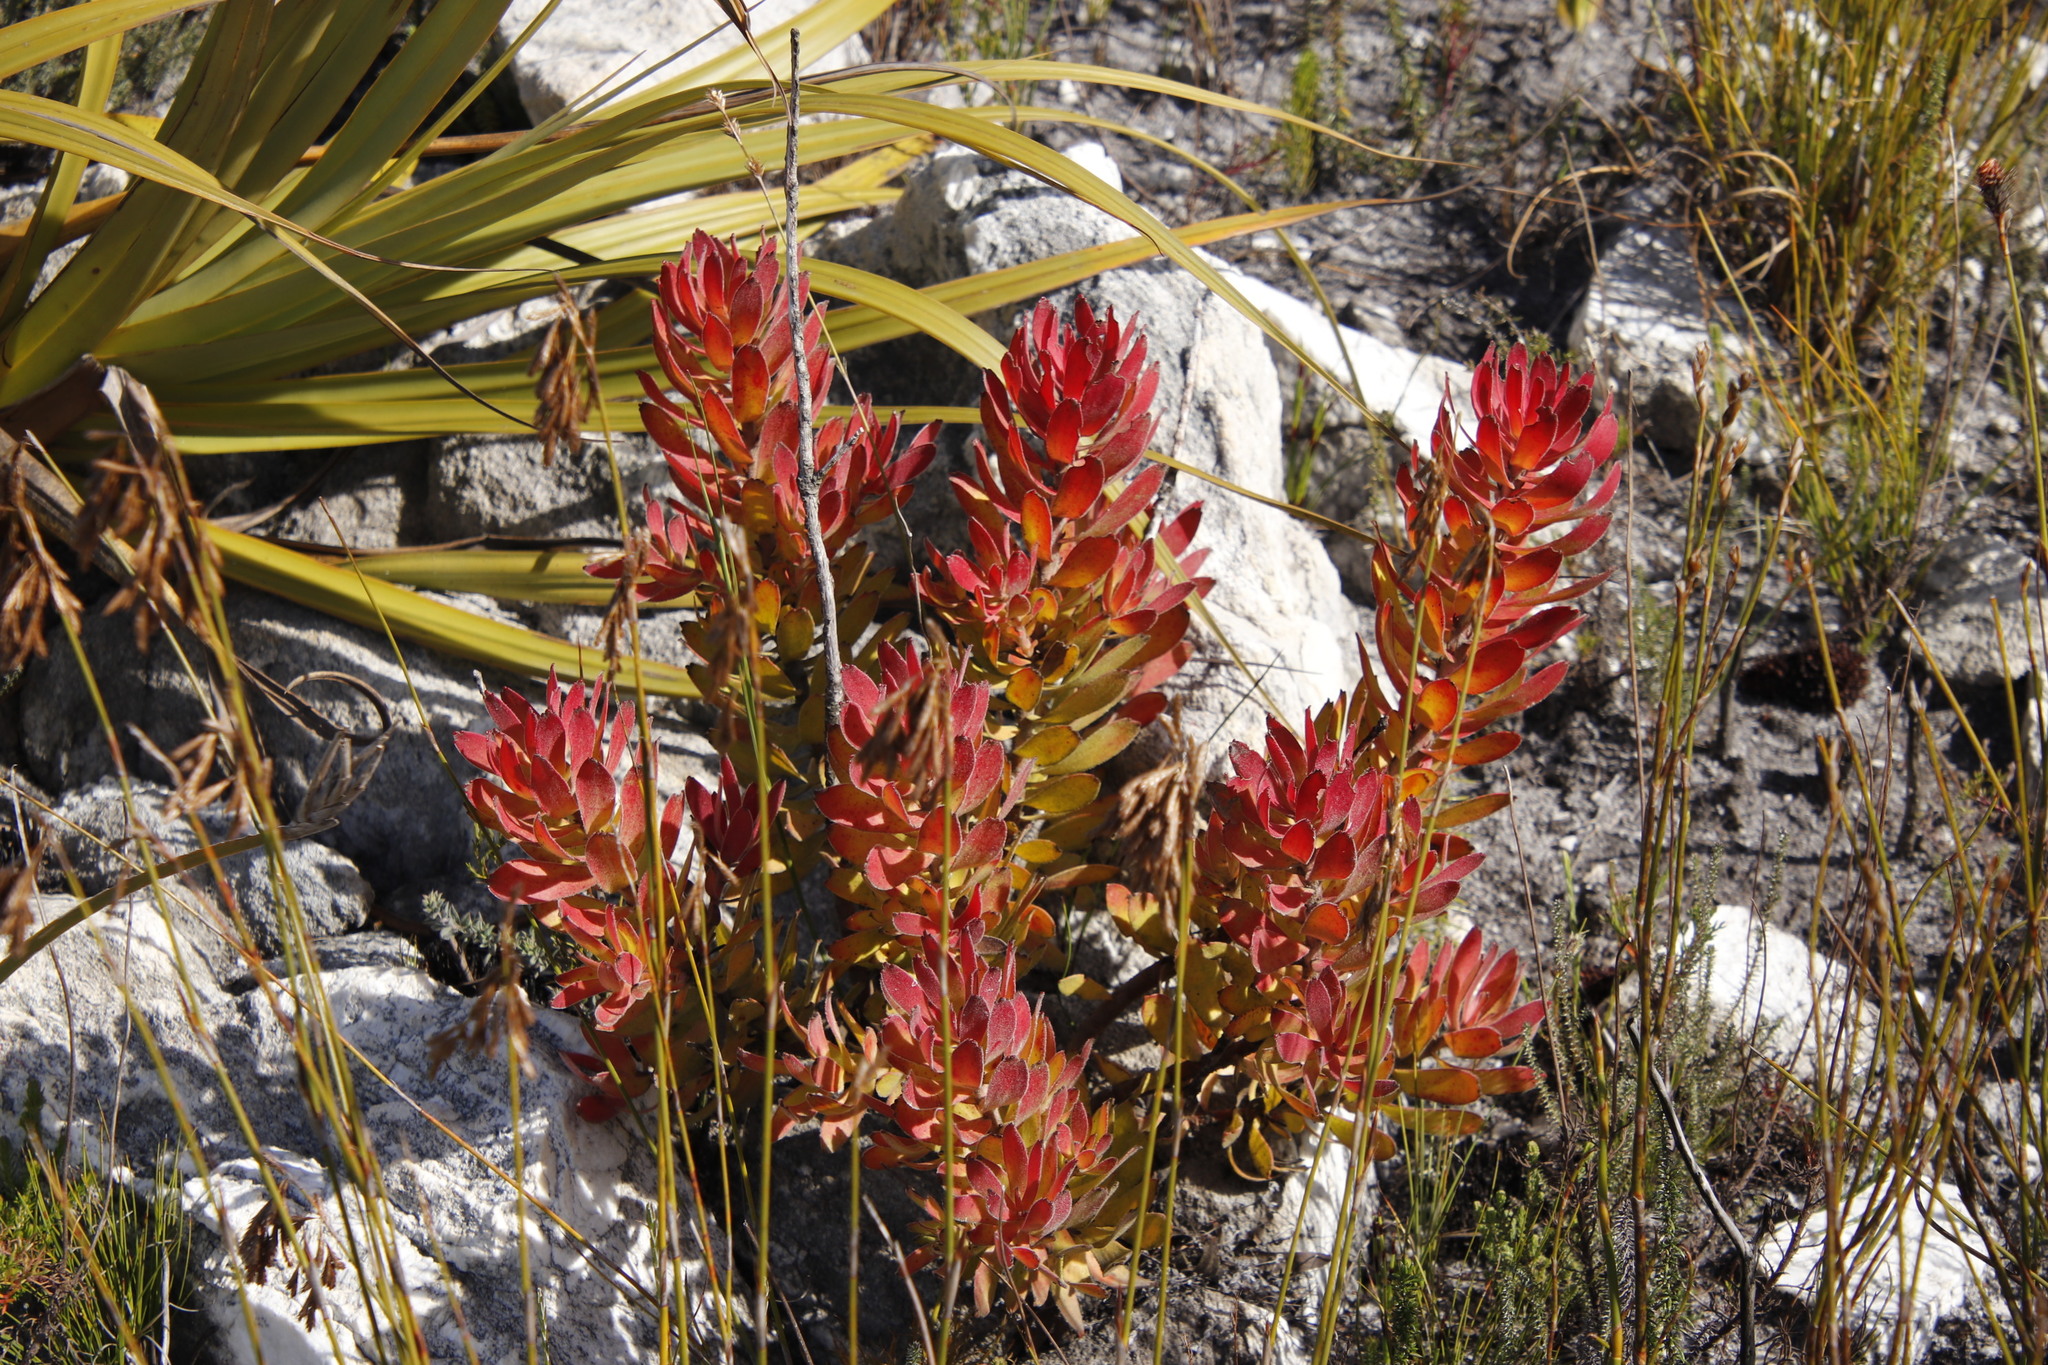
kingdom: Plantae
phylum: Tracheophyta
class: Magnoliopsida
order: Proteales
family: Proteaceae
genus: Mimetes
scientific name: Mimetes cucullatus
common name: Common pagoda
